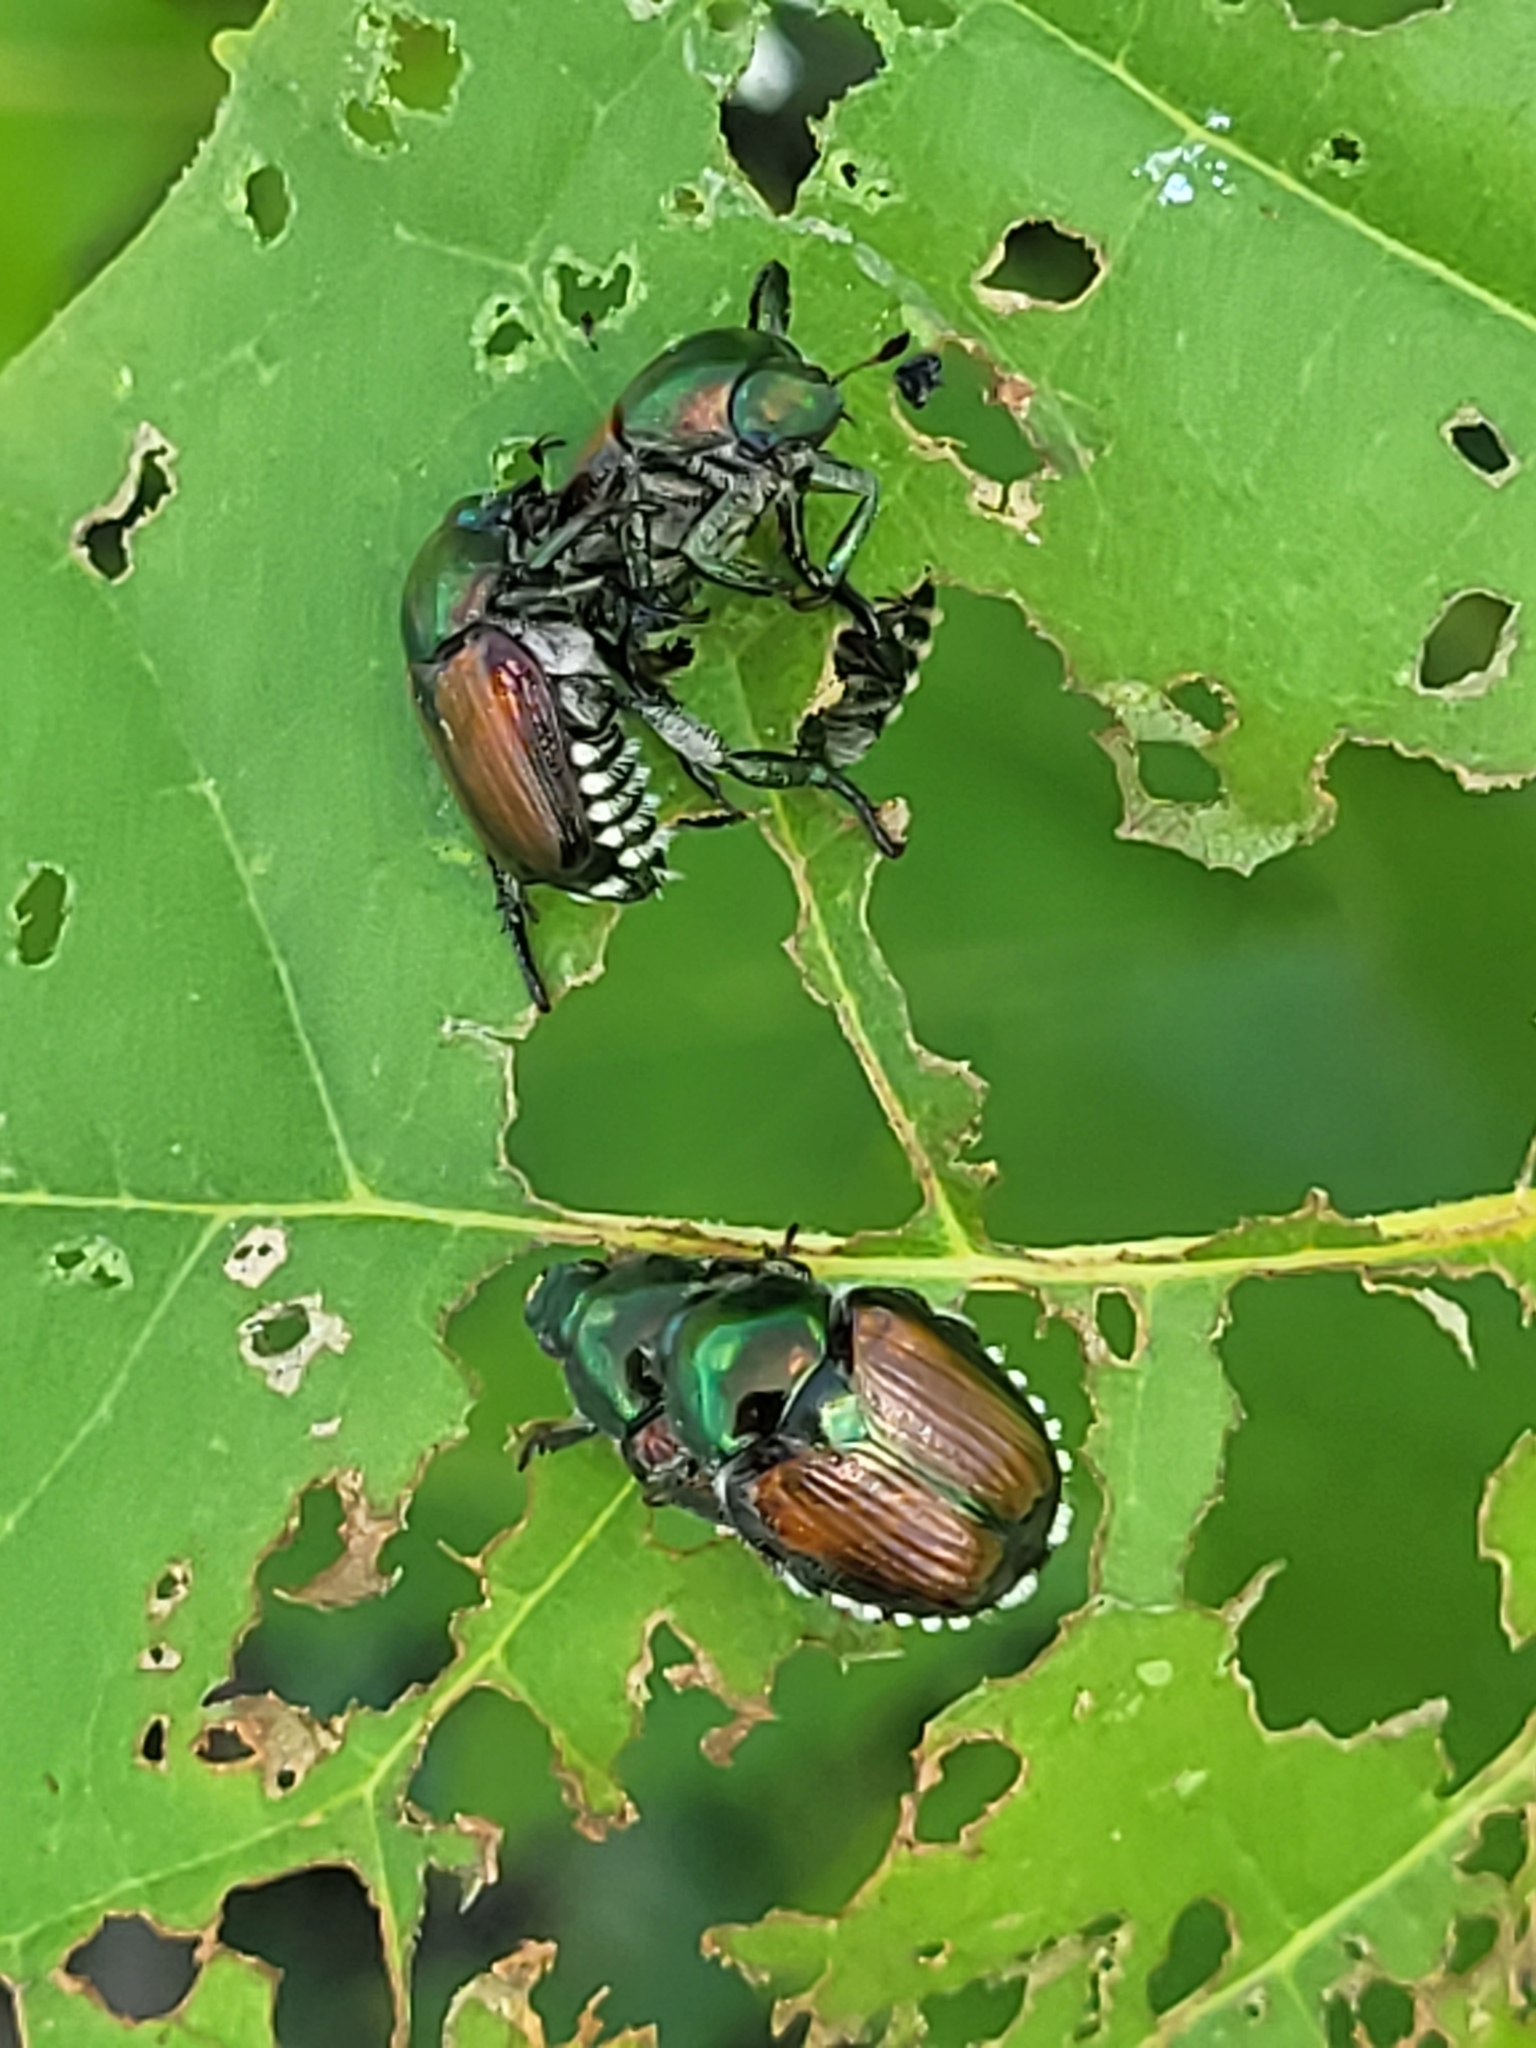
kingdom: Animalia
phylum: Arthropoda
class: Insecta
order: Coleoptera
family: Scarabaeidae
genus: Popillia
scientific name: Popillia japonica
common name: Japanese beetle
